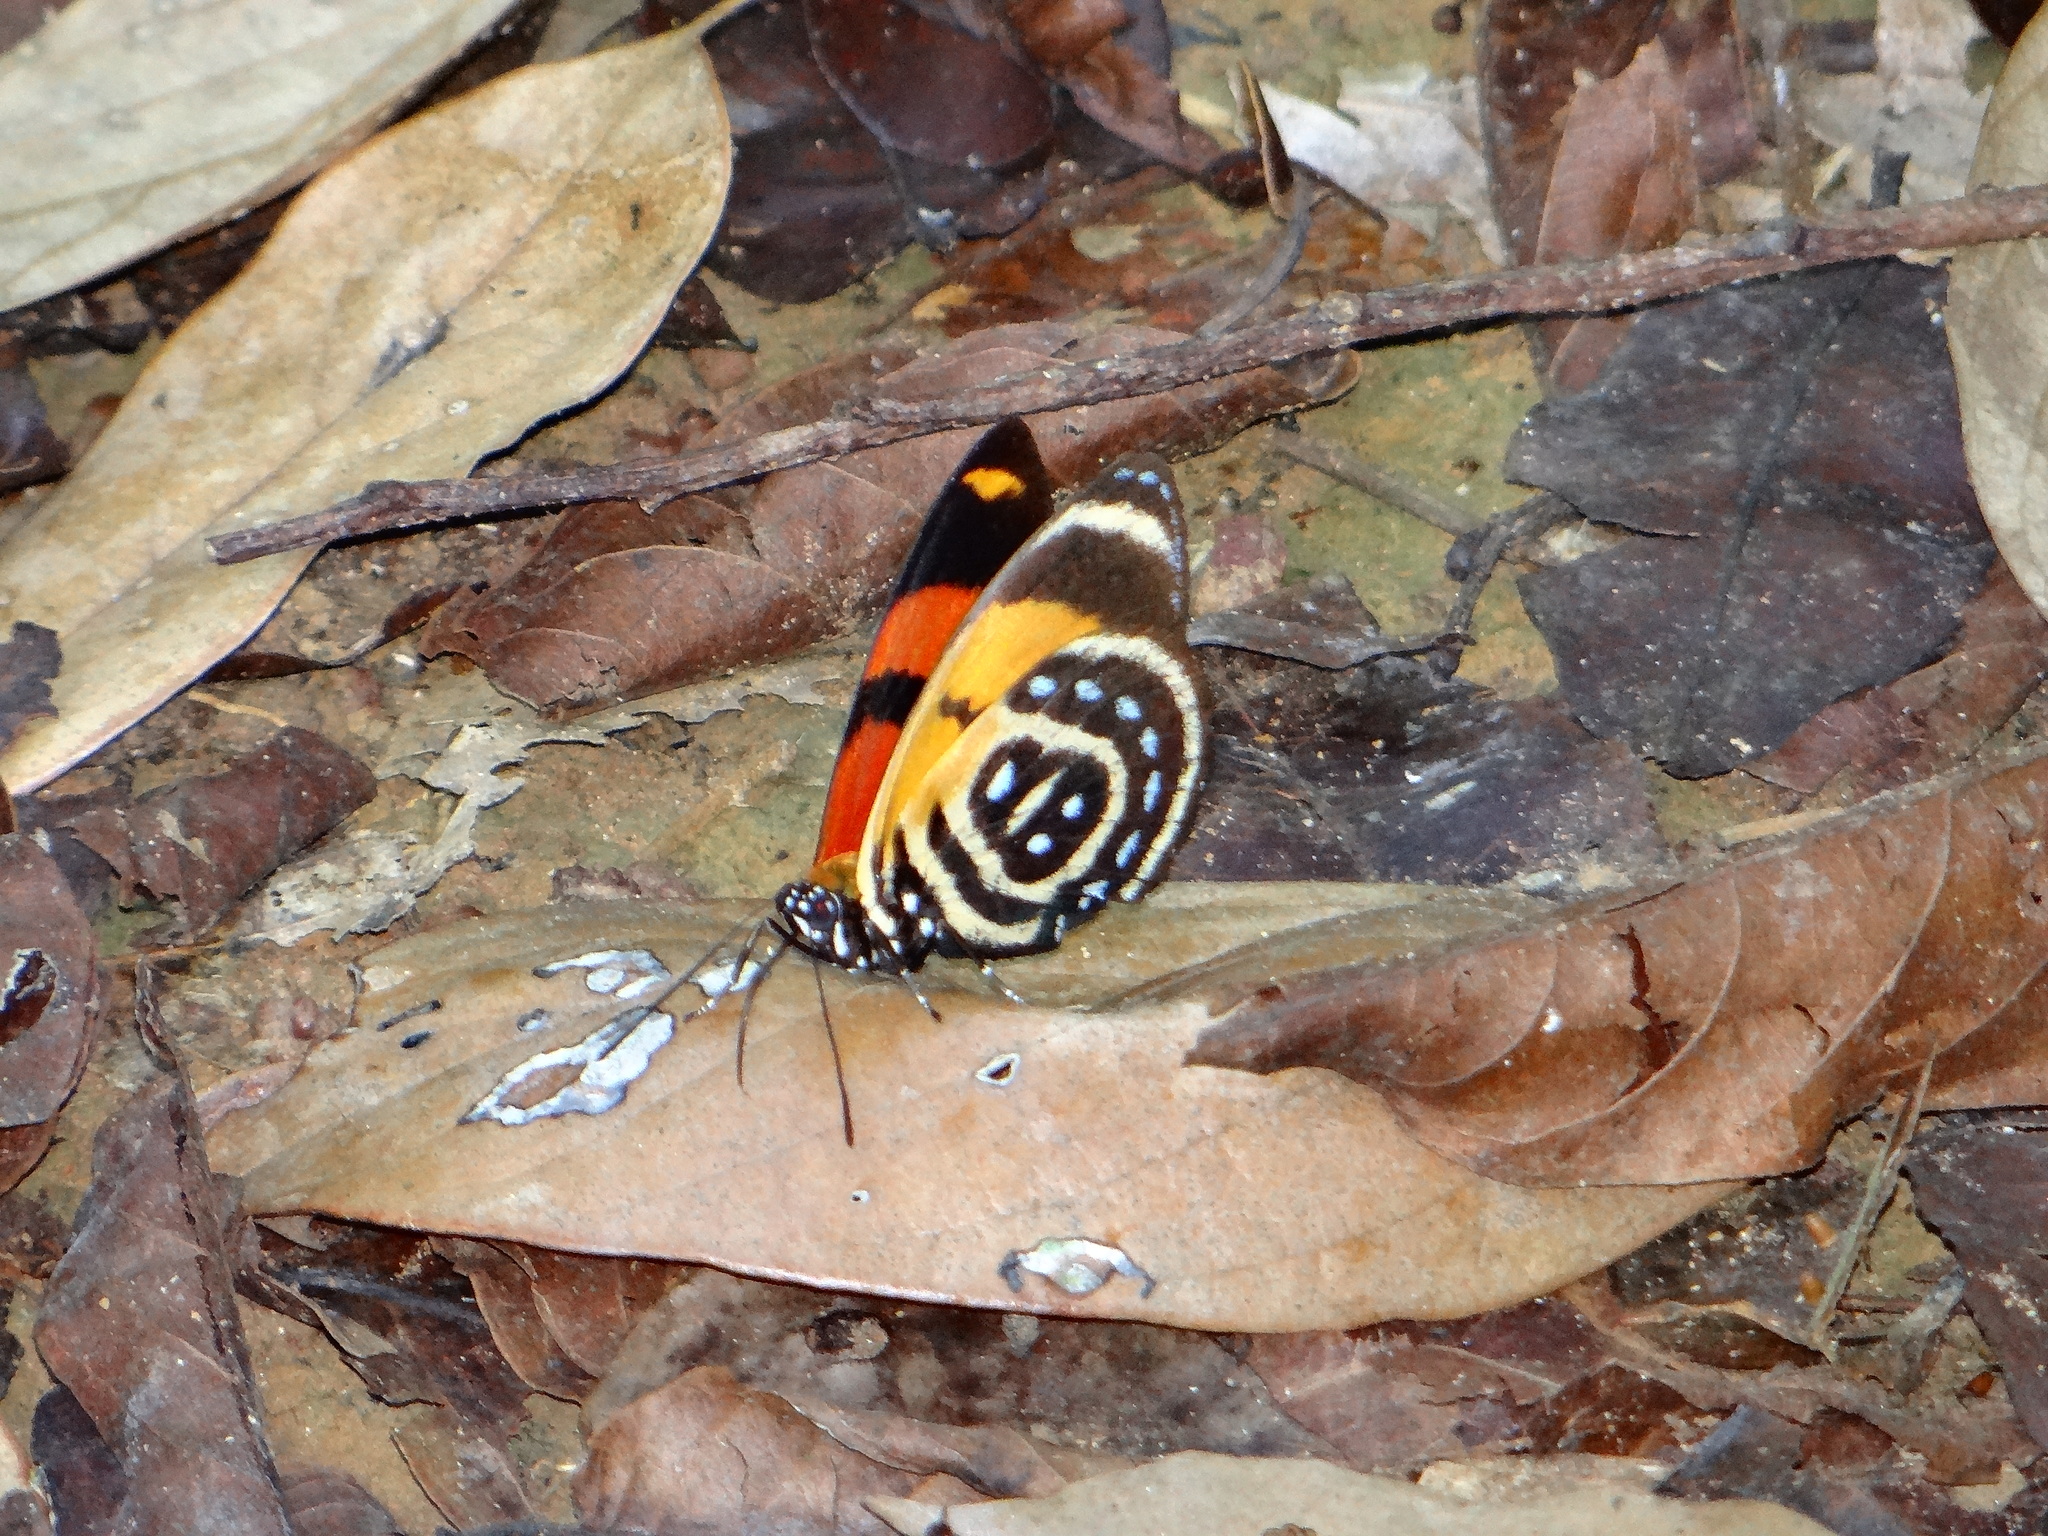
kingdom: Animalia
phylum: Arthropoda
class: Insecta
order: Lepidoptera
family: Nymphalidae
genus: Catagramma
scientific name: Catagramma cynosura
